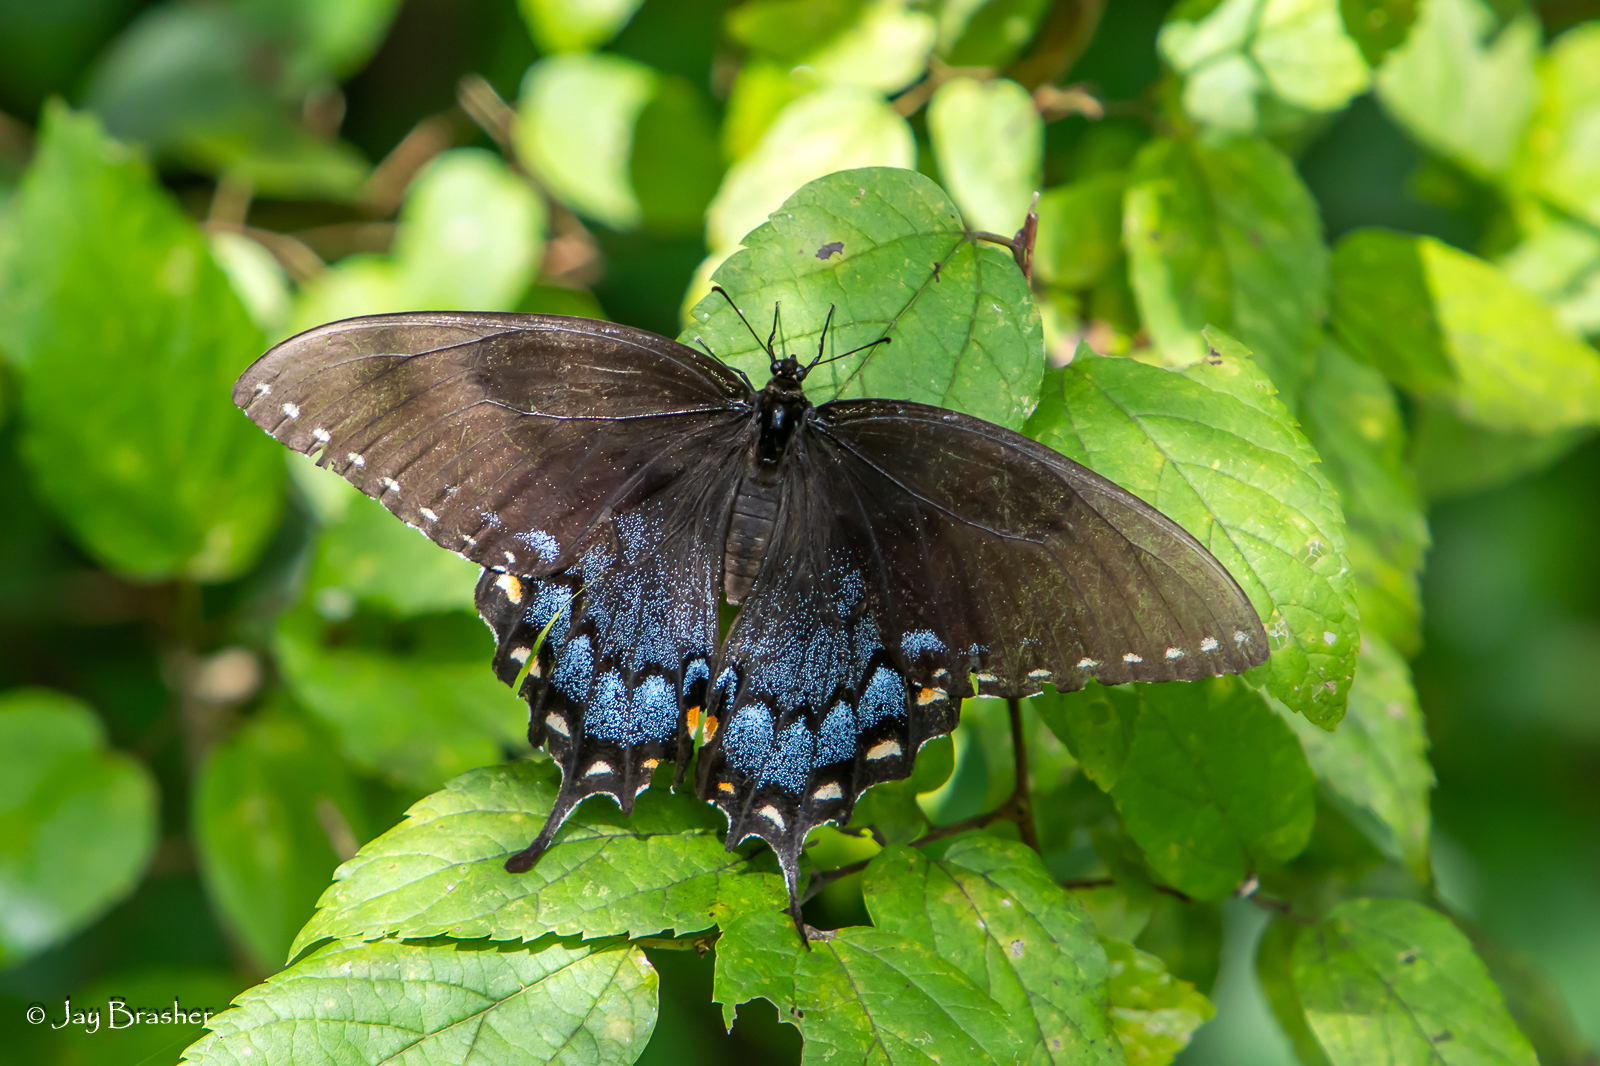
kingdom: Animalia
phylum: Arthropoda
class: Insecta
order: Lepidoptera
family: Papilionidae
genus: Papilio
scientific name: Papilio glaucus
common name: Tiger swallowtail
